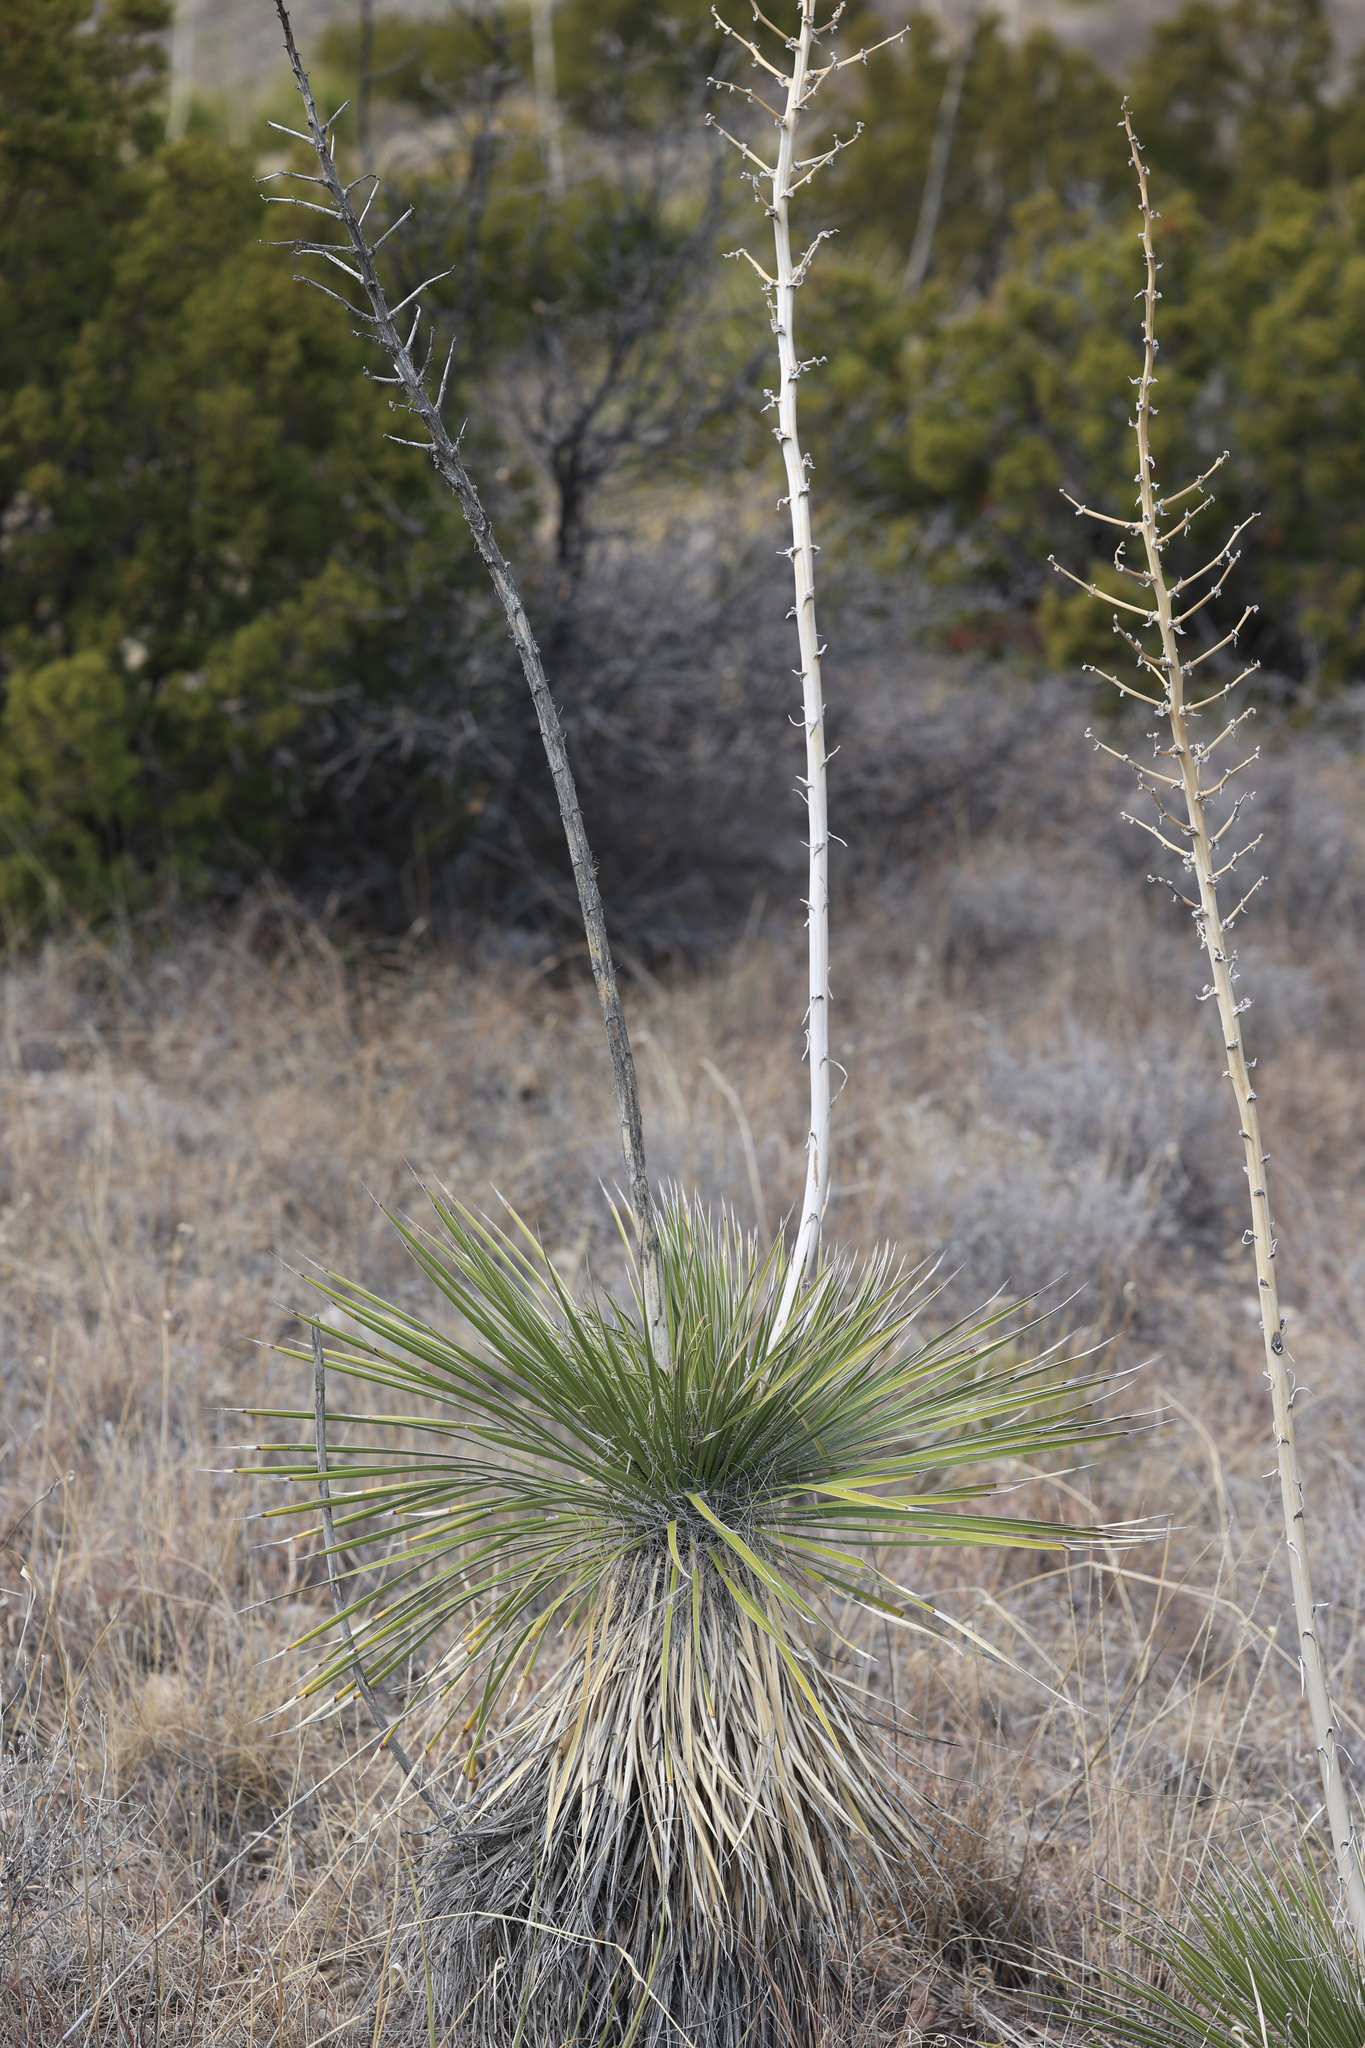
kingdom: Plantae
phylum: Tracheophyta
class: Liliopsida
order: Asparagales
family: Asparagaceae
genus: Yucca
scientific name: Yucca elata
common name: Palmella
